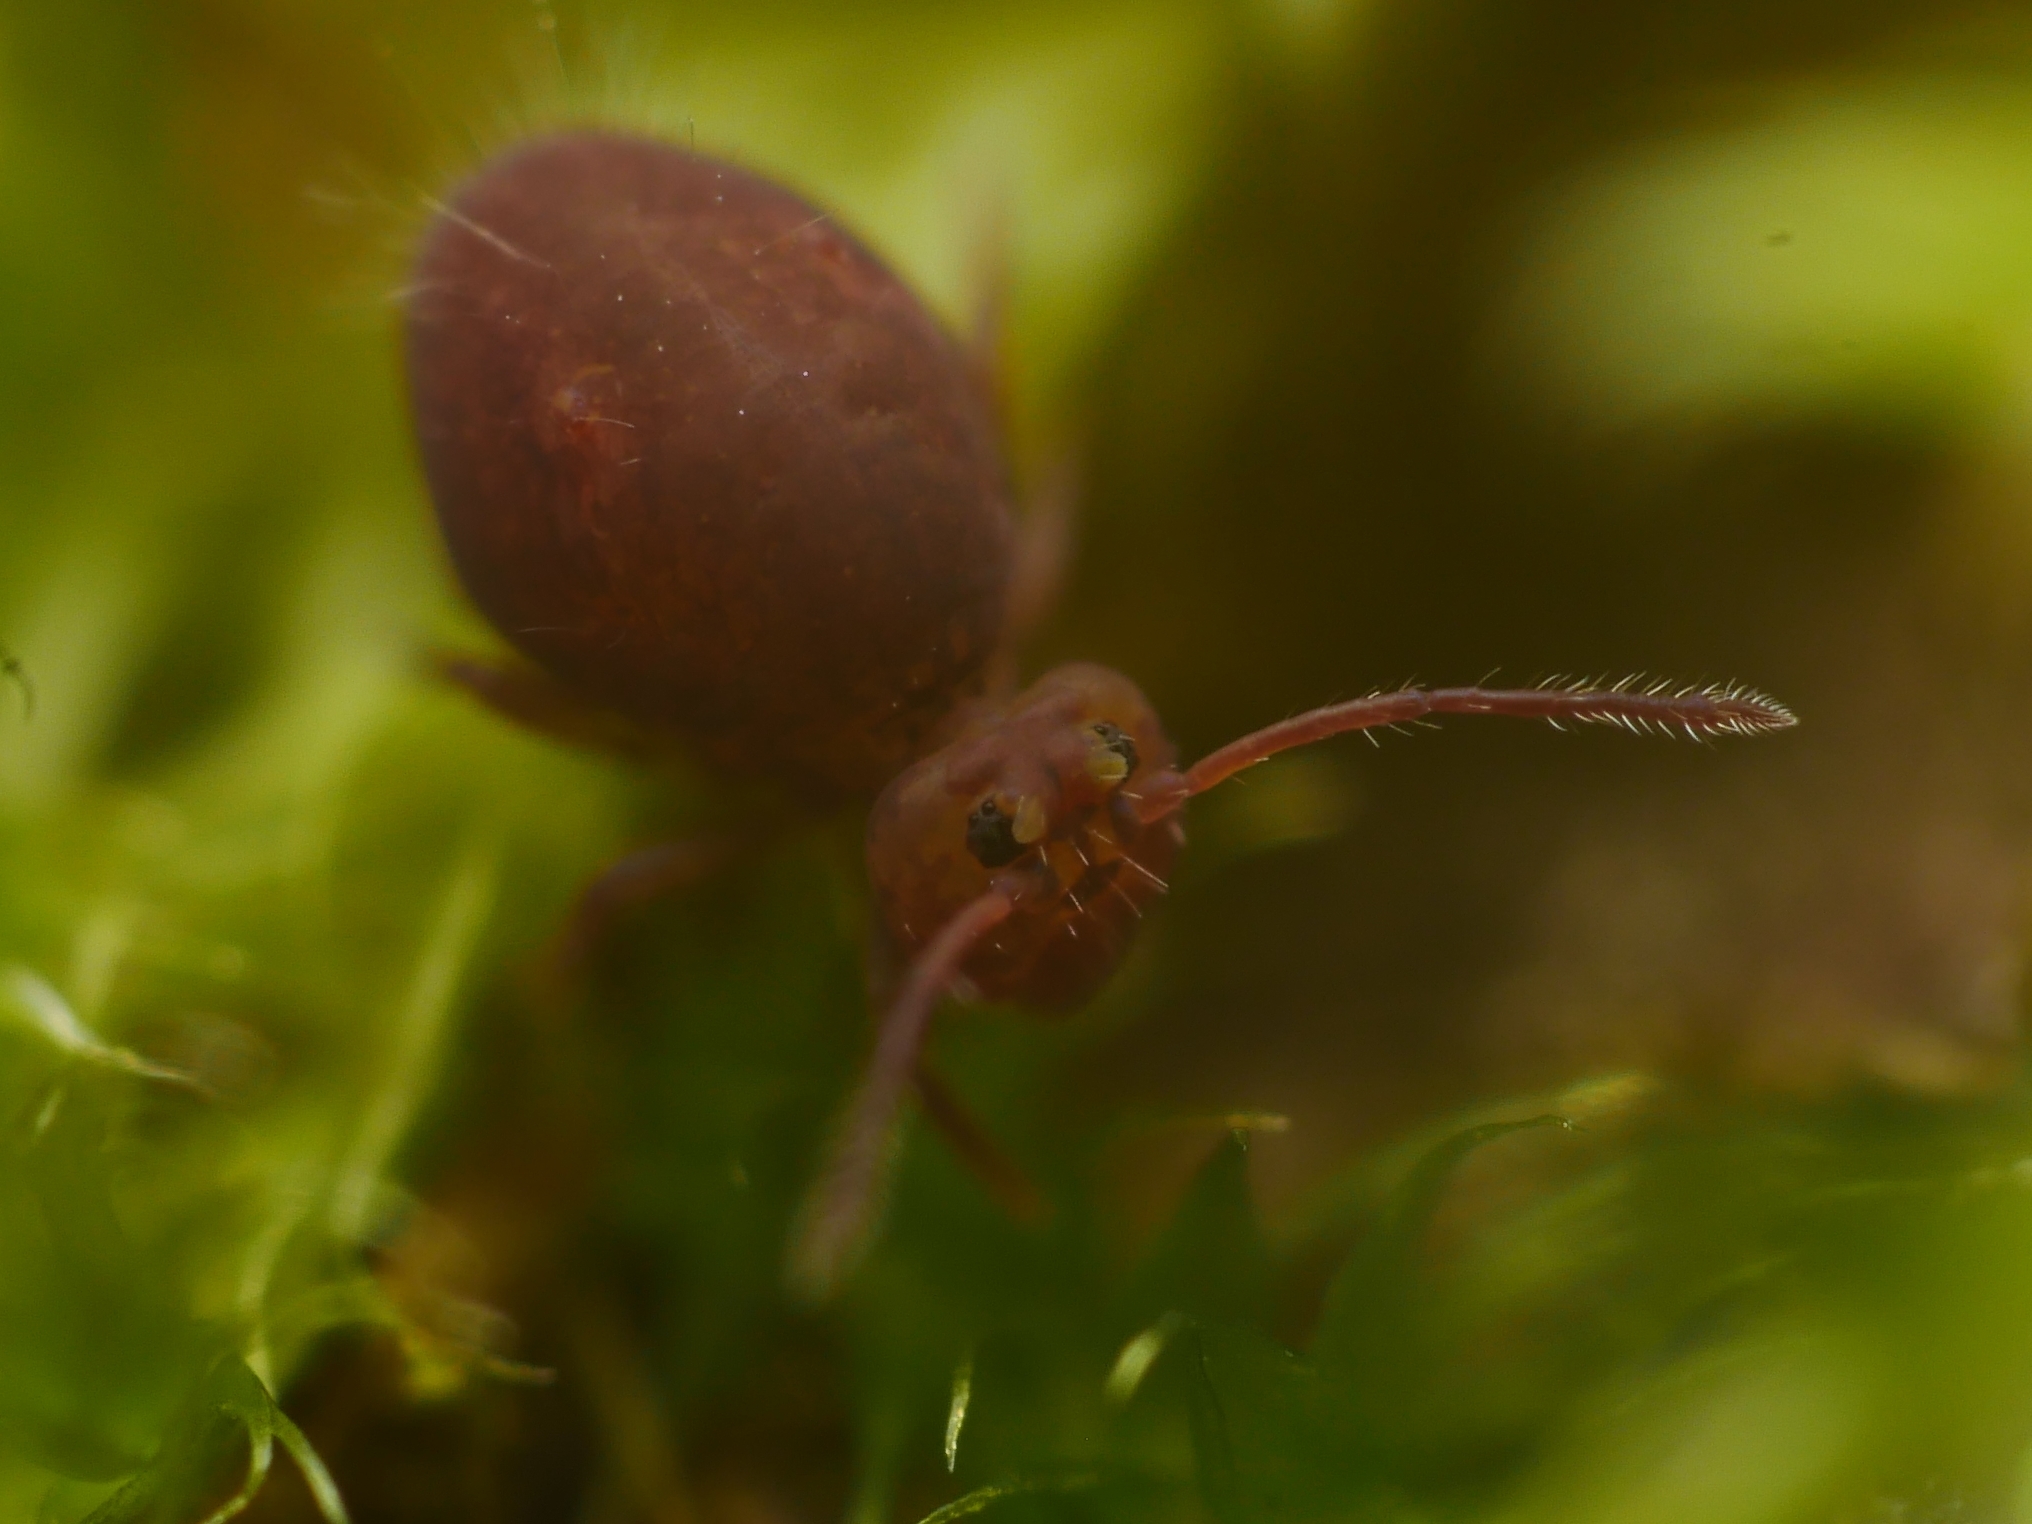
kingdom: Animalia
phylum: Arthropoda
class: Collembola
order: Symphypleona
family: Dicyrtomidae
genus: Dicyrtoma
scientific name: Dicyrtoma fusca
